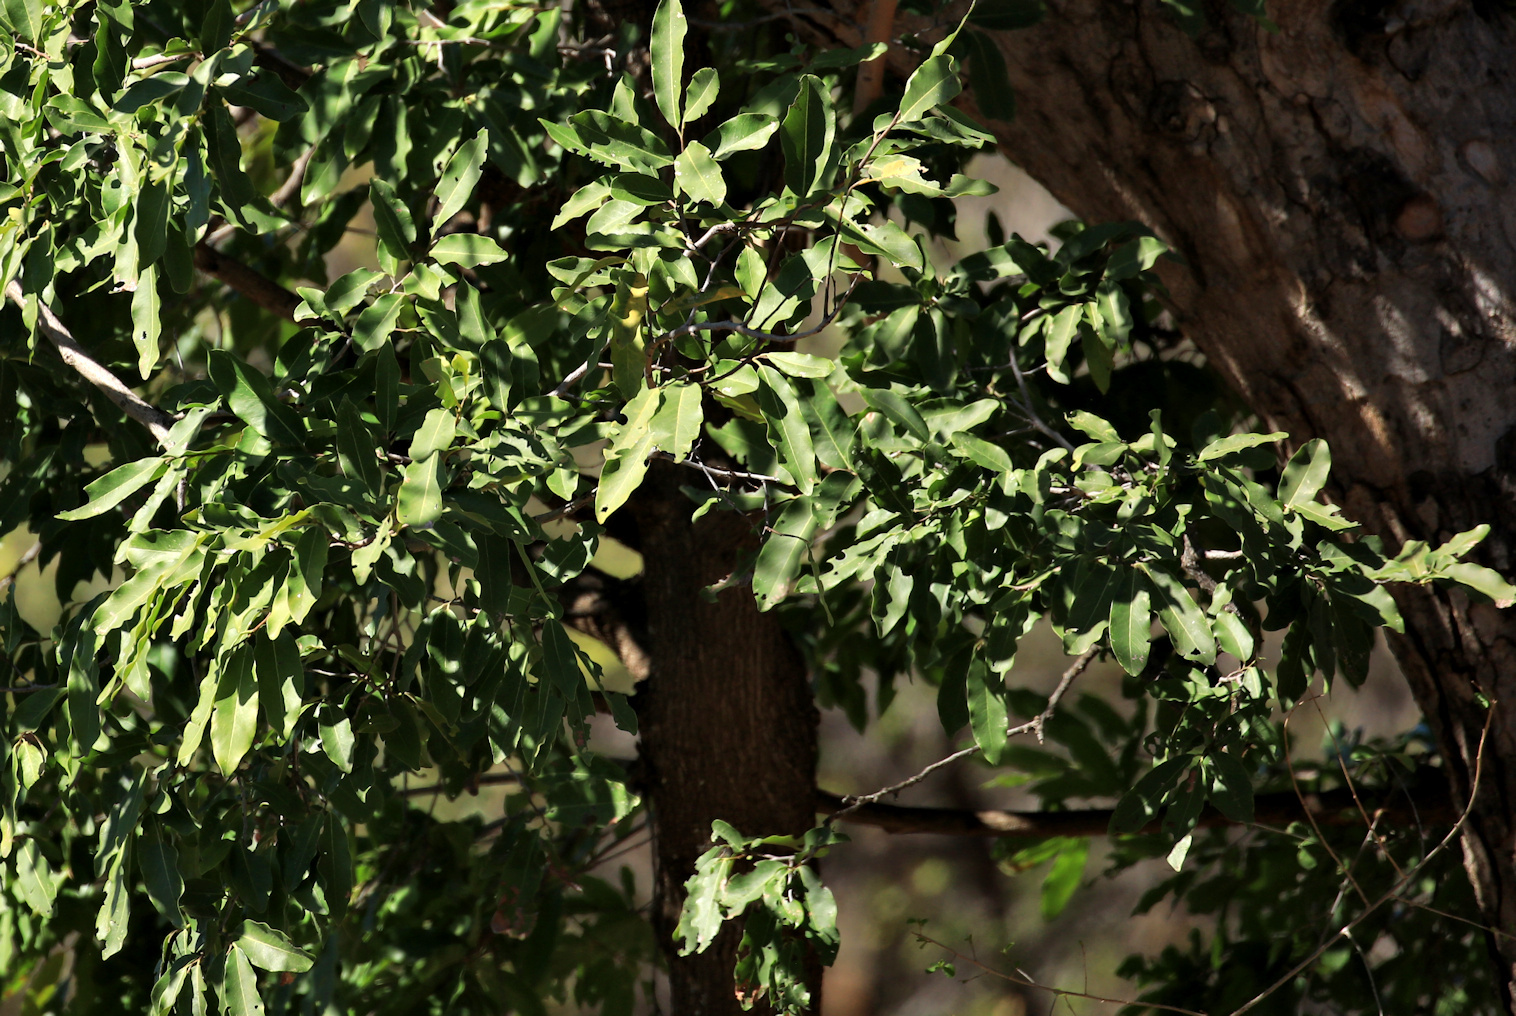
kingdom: Plantae
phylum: Tracheophyta
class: Magnoliopsida
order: Ericales
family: Ebenaceae
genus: Diospyros
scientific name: Diospyros mespiliformis
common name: Ebony diospyros
